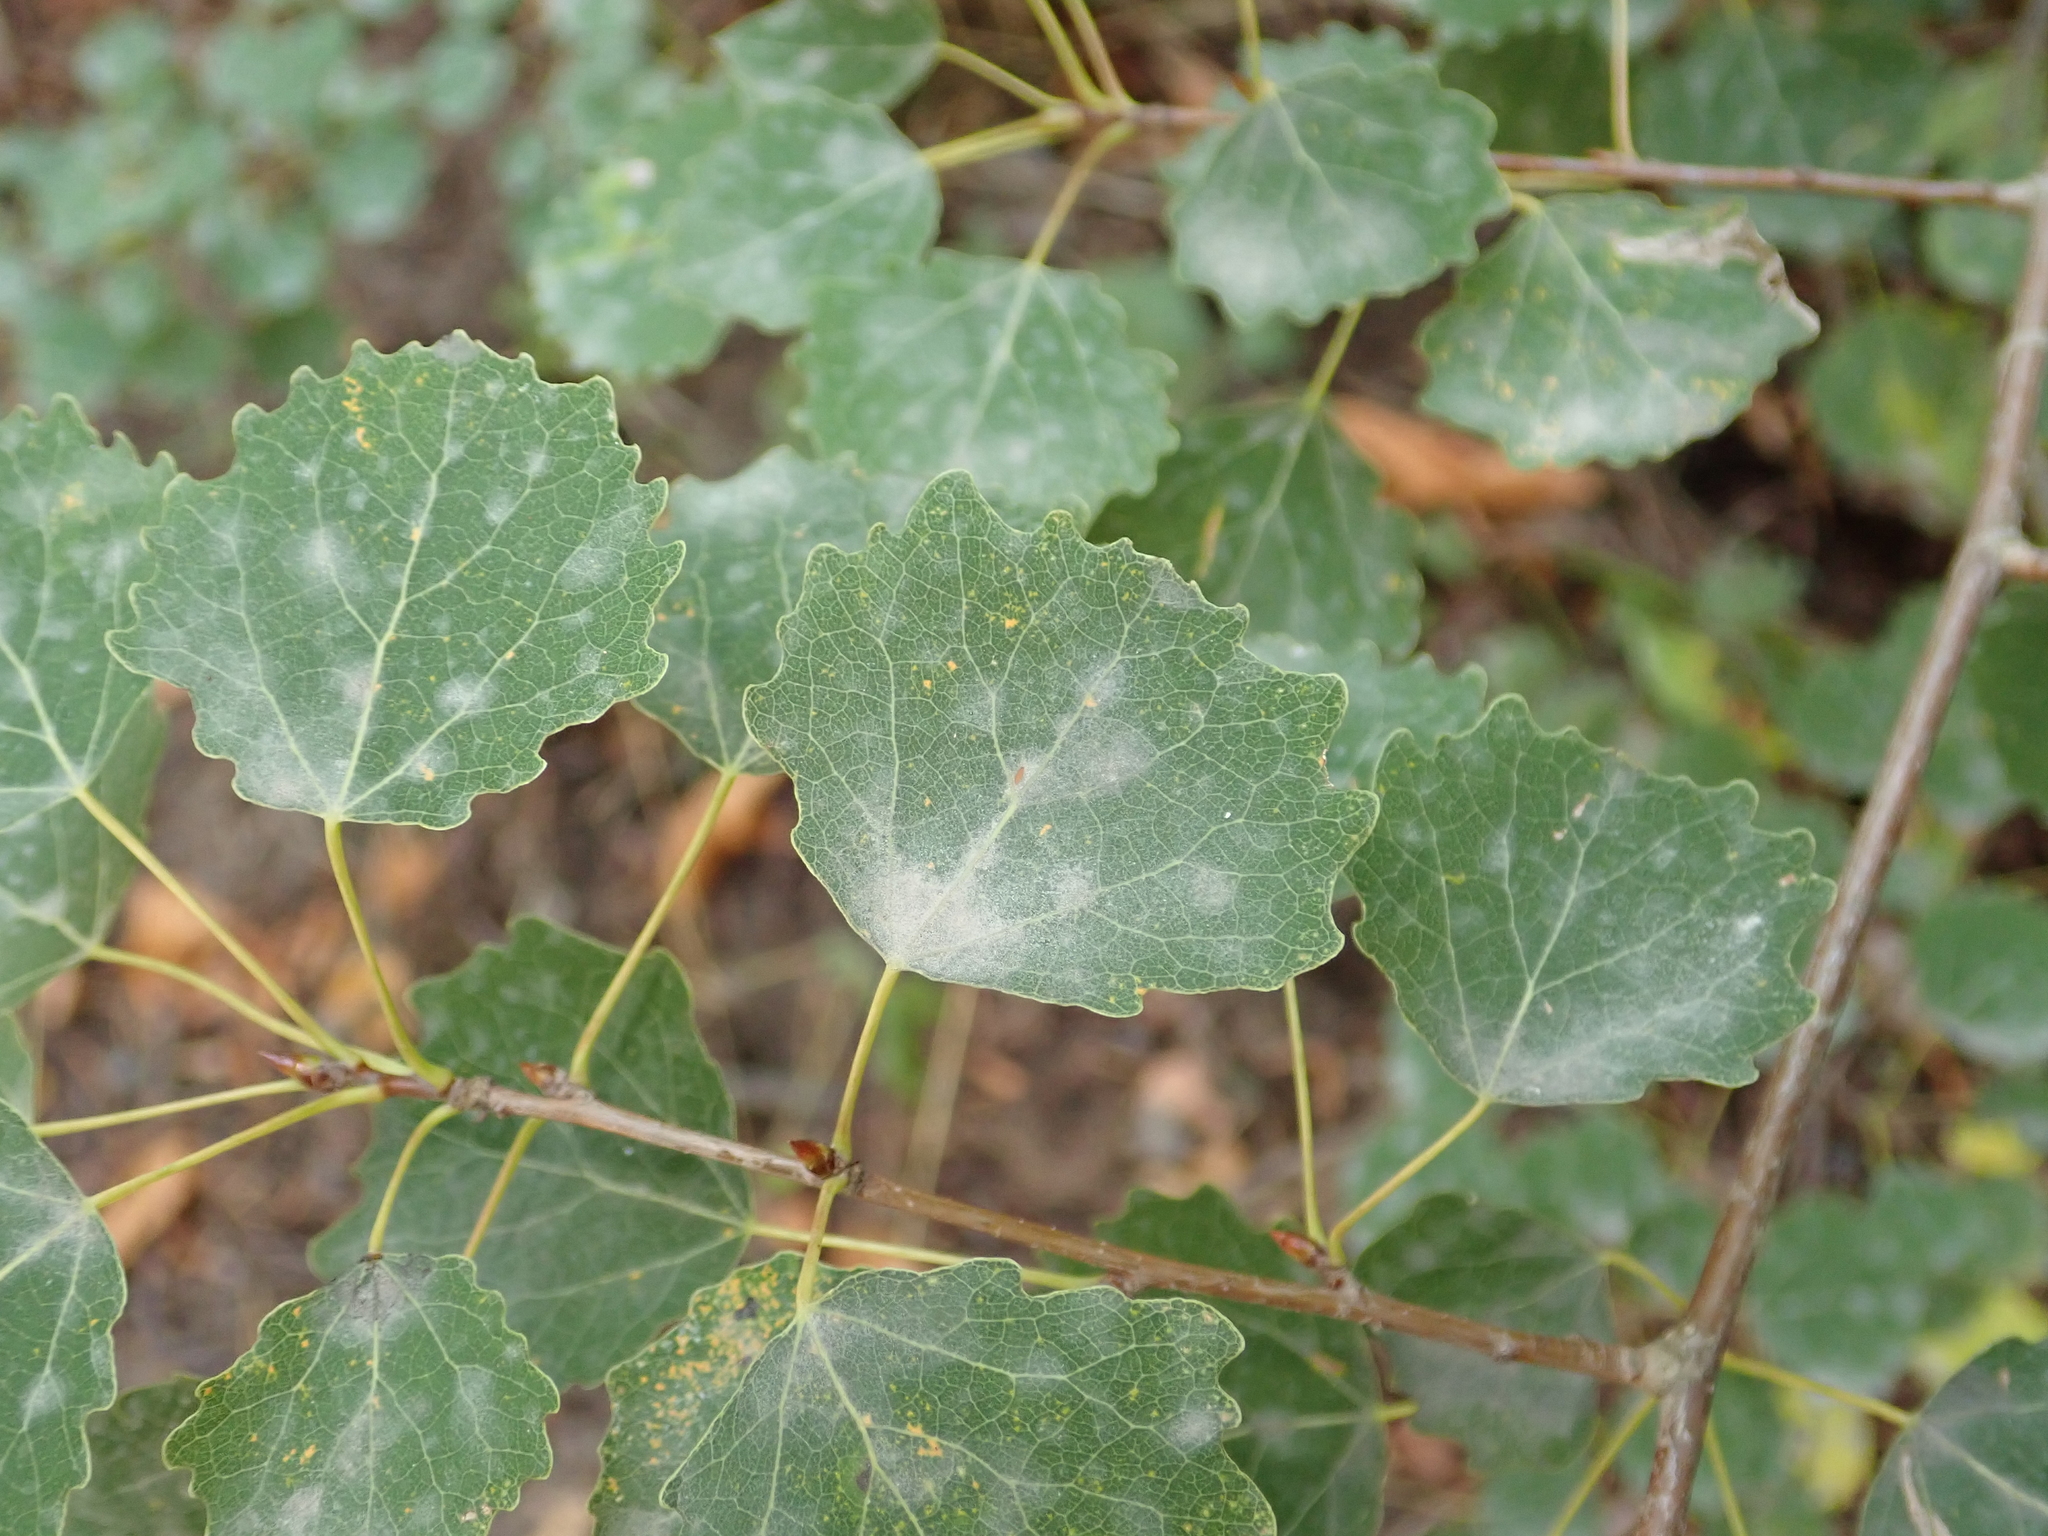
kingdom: Plantae
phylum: Tracheophyta
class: Magnoliopsida
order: Malpighiales
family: Salicaceae
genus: Populus
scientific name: Populus tremula
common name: European aspen
